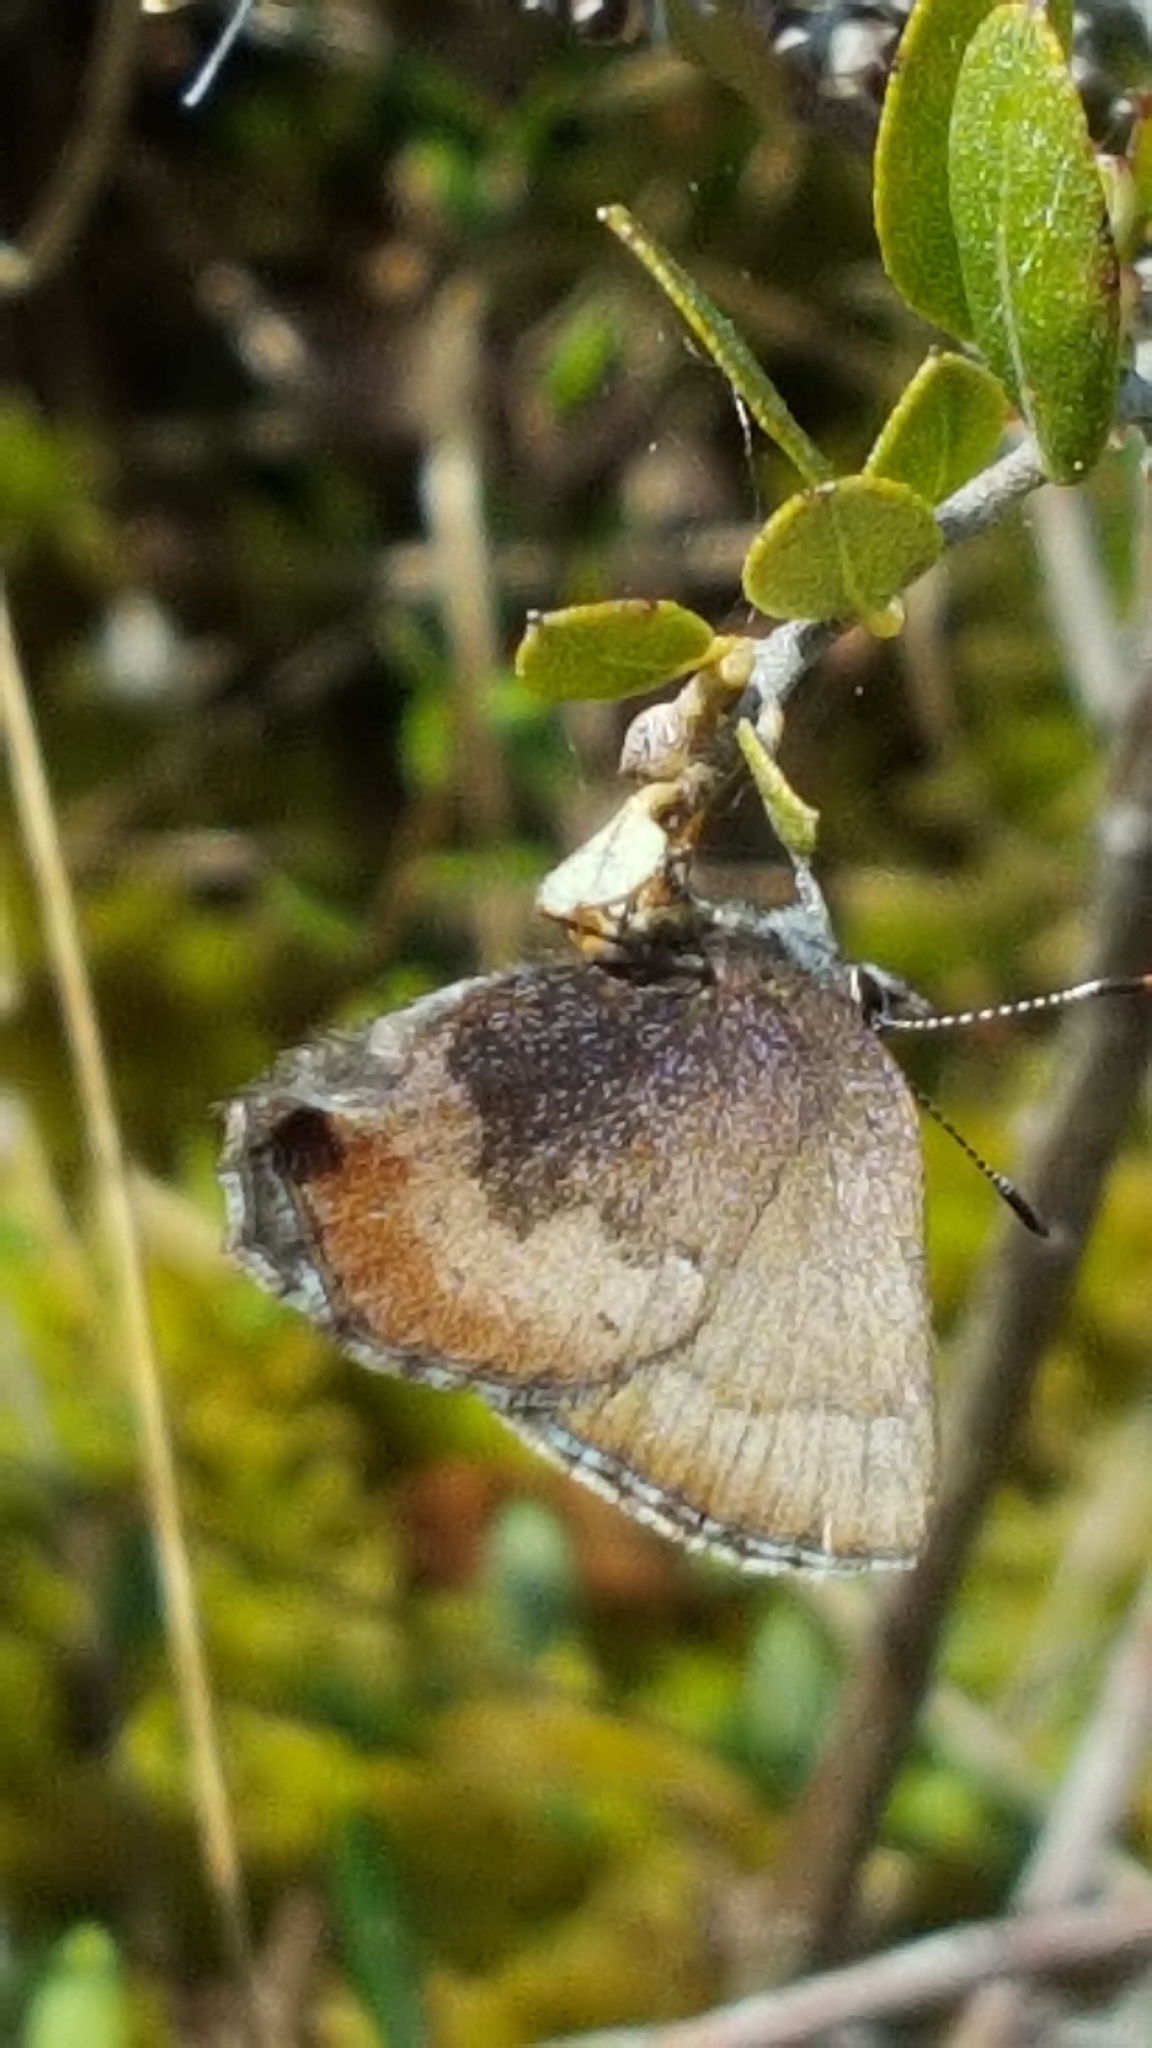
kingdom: Animalia
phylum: Arthropoda
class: Insecta
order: Lepidoptera
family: Lycaenidae
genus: Incisalia
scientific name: Incisalia irioides
